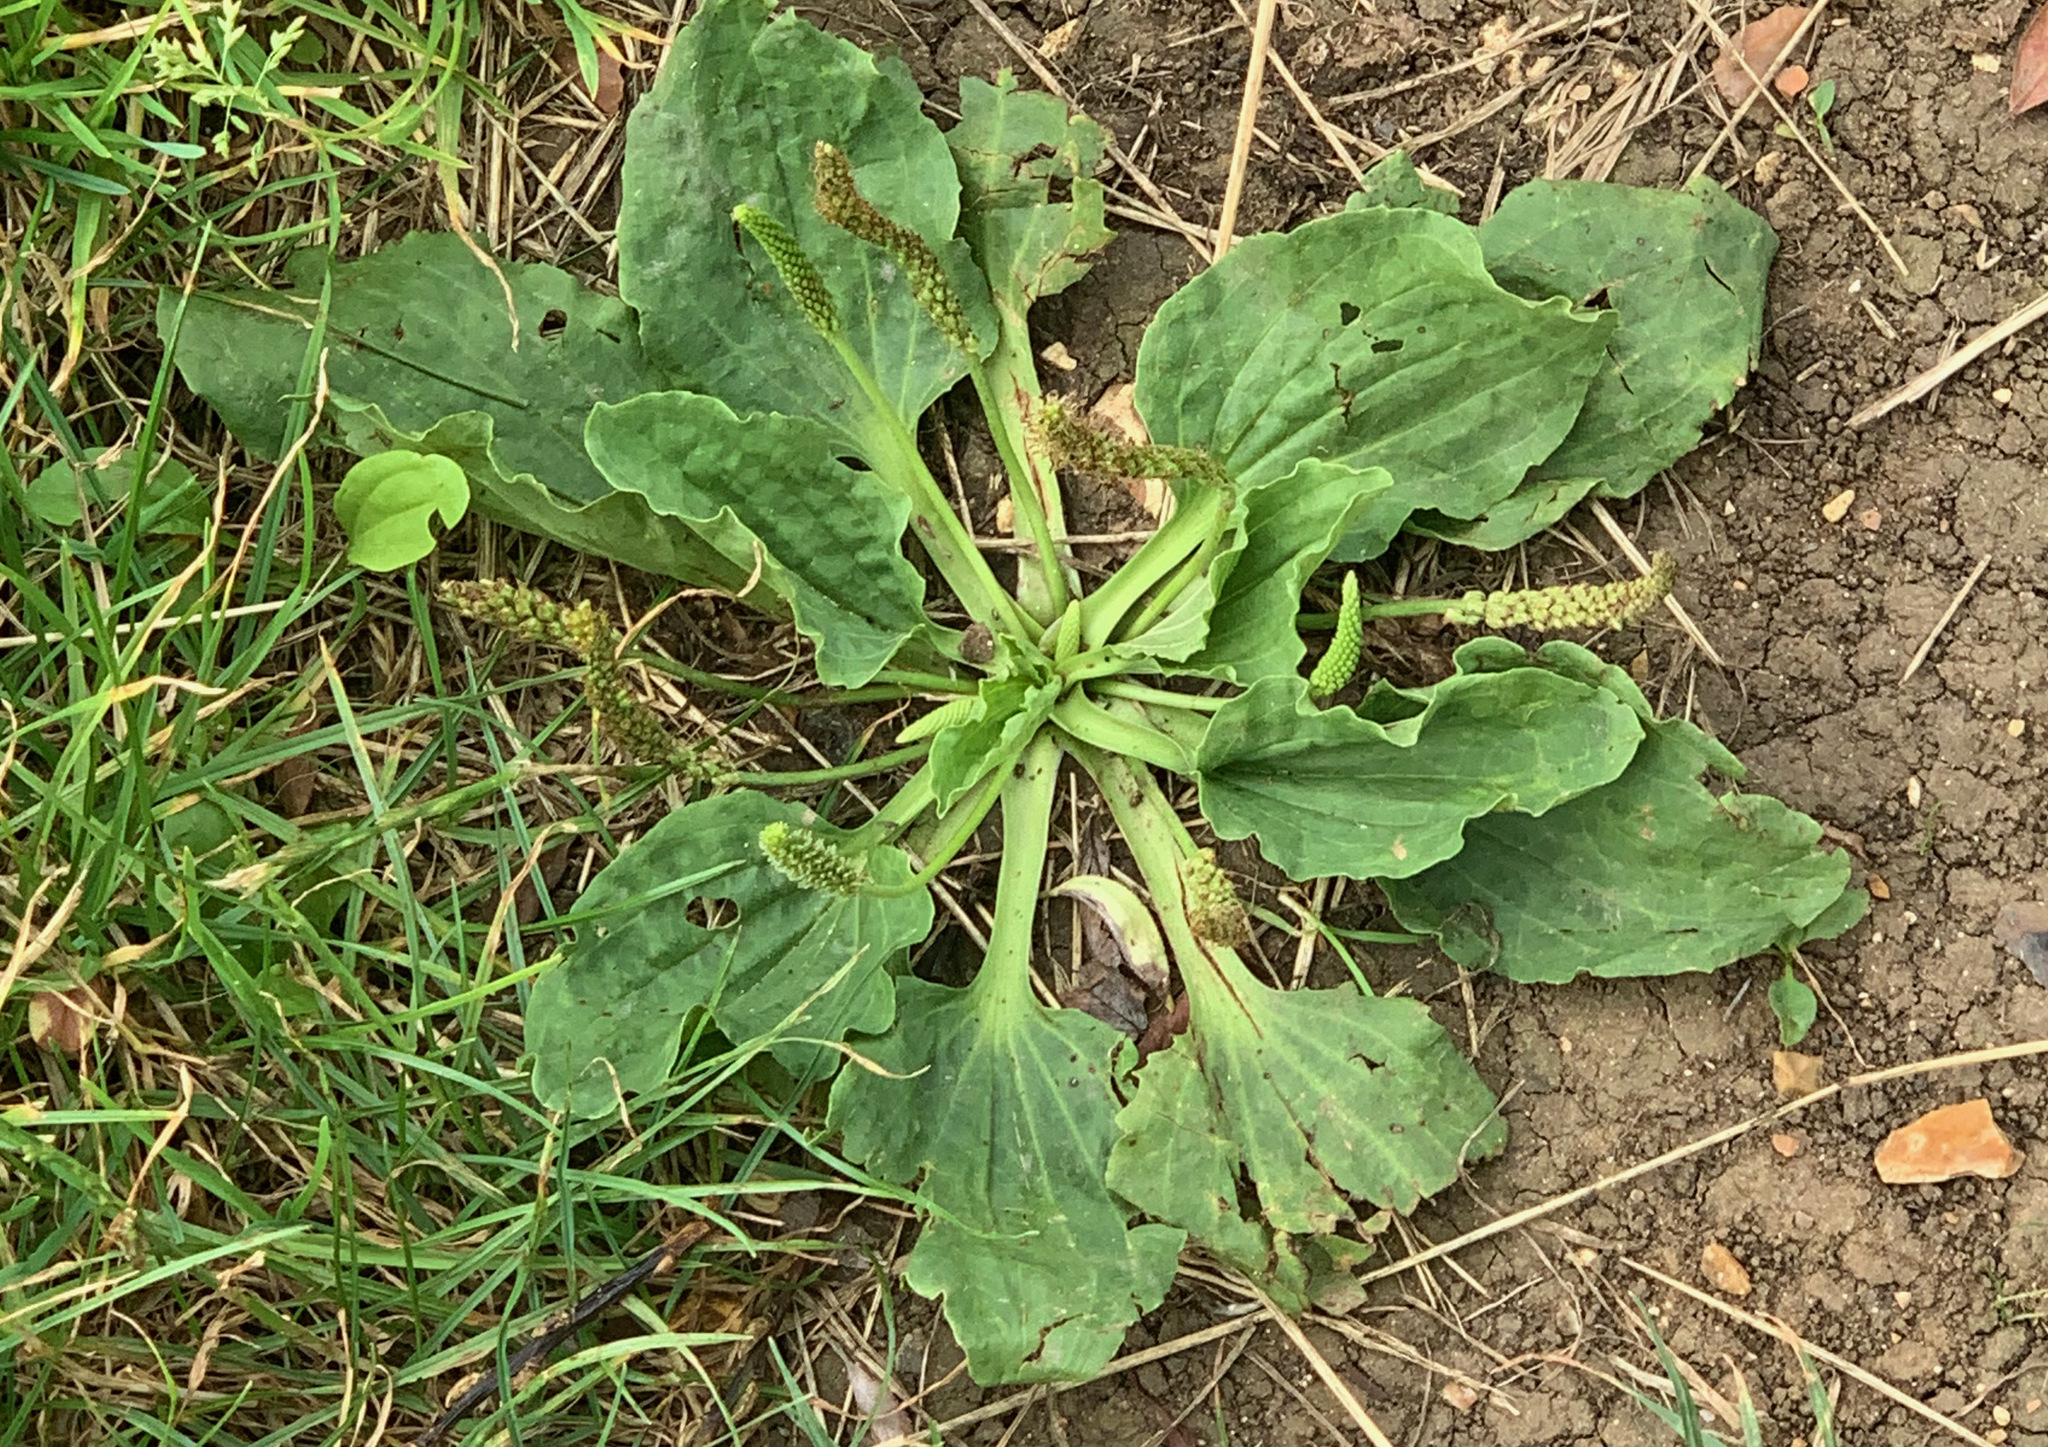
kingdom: Plantae
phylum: Tracheophyta
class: Magnoliopsida
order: Lamiales
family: Plantaginaceae
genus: Plantago
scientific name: Plantago major
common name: Common plantain
